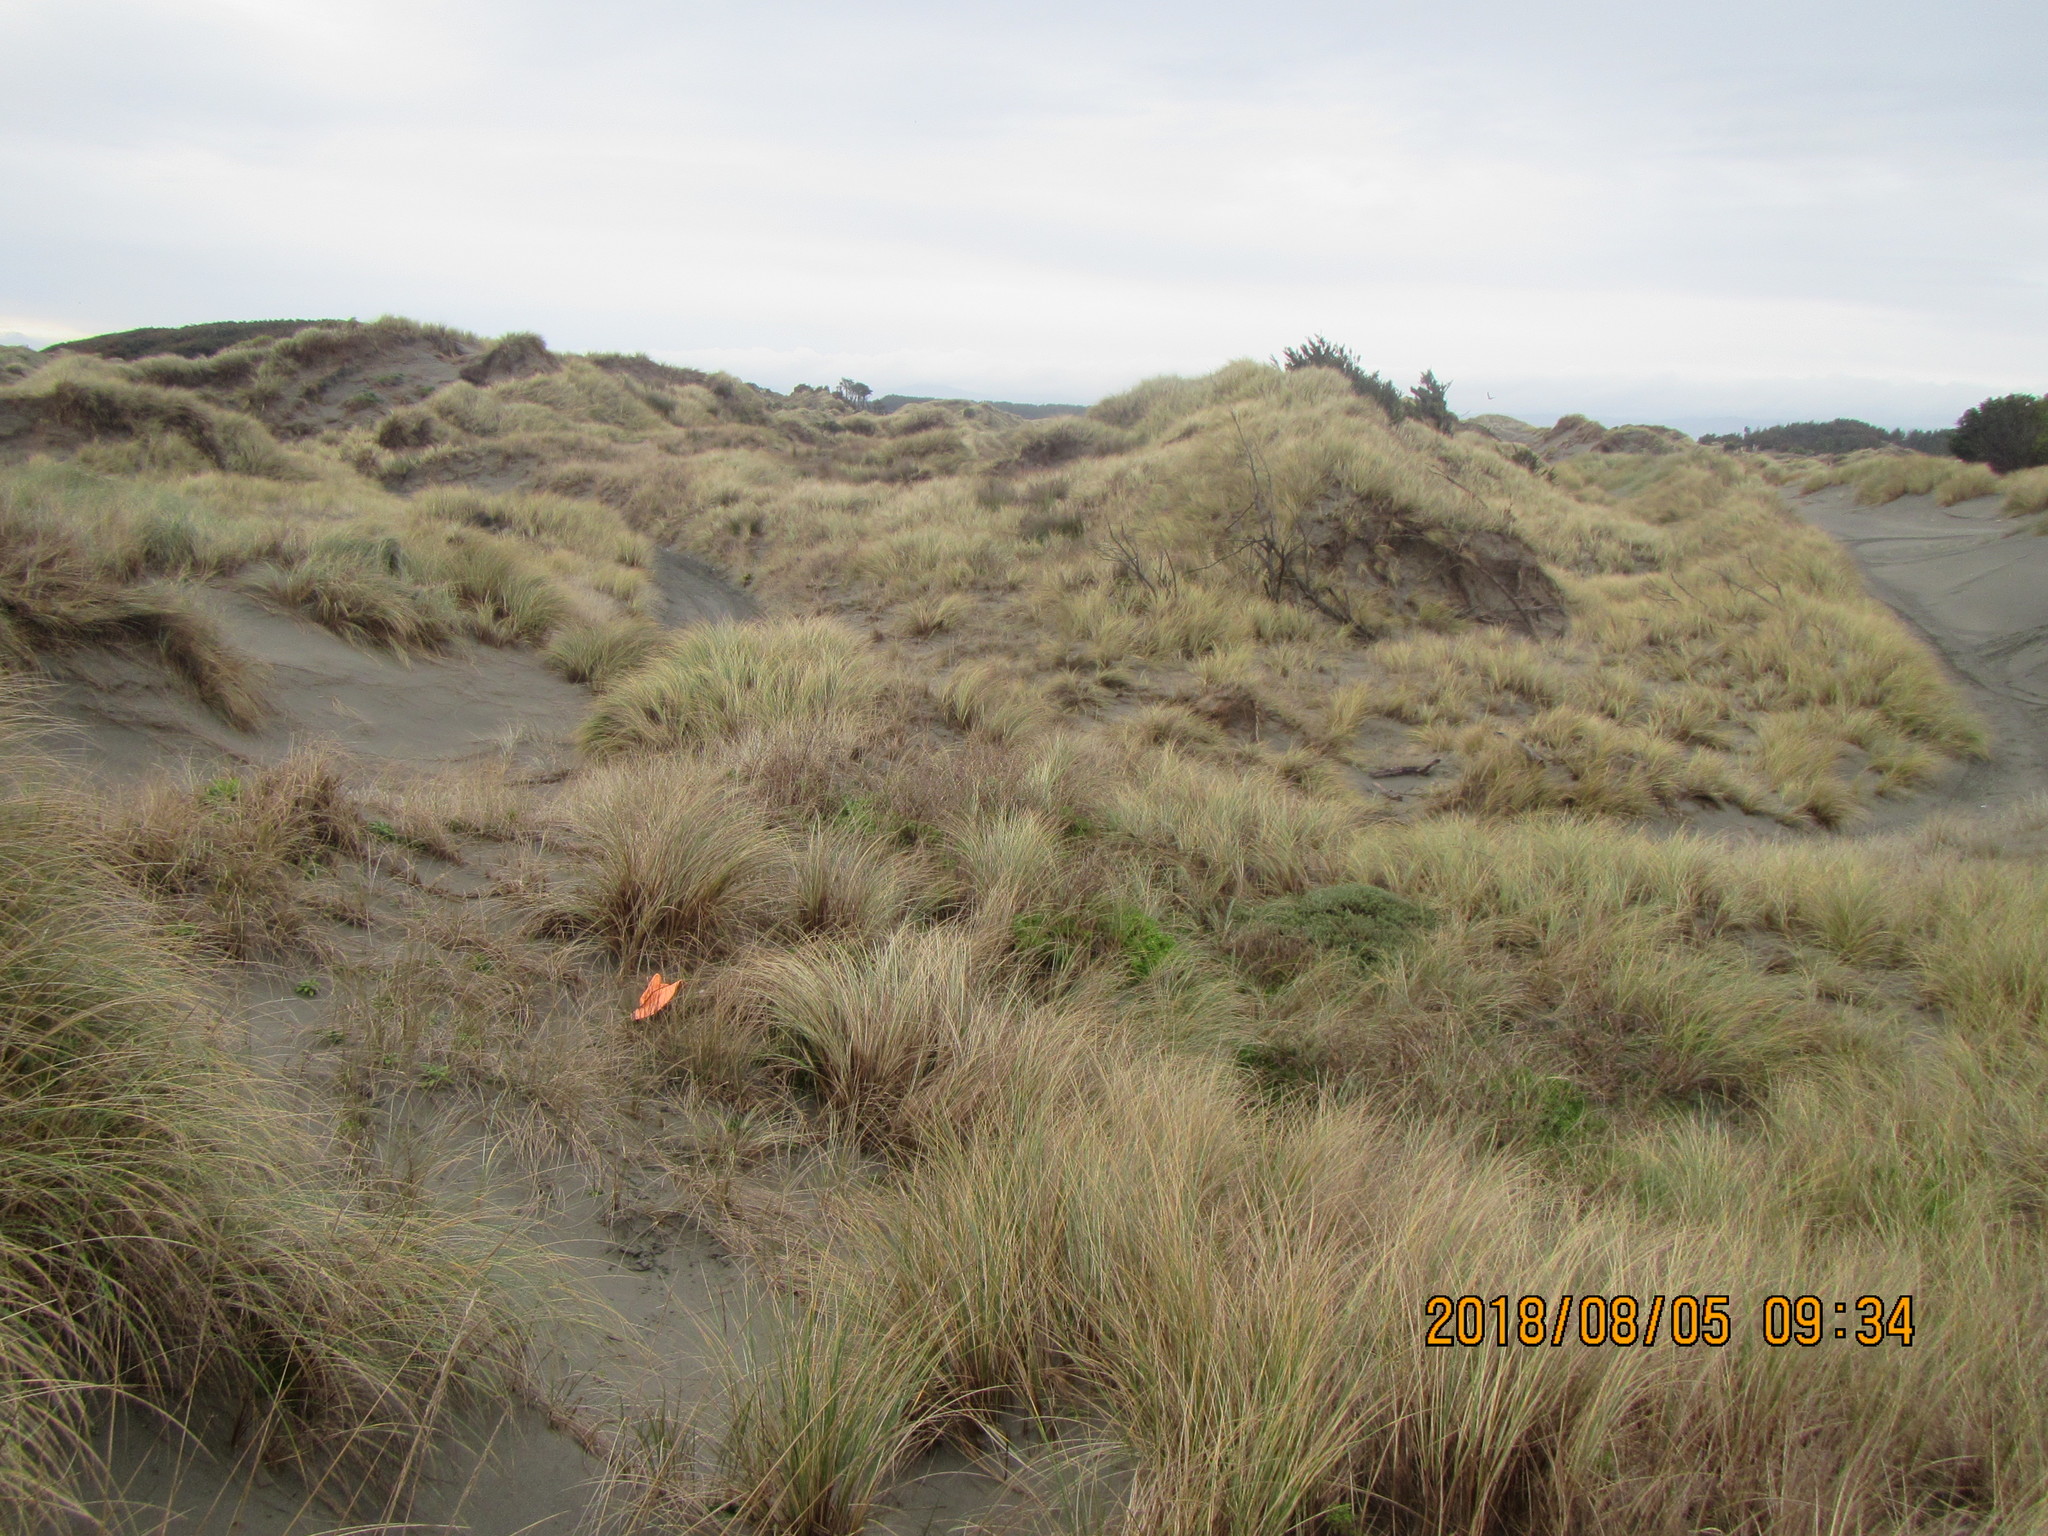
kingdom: Animalia
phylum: Mollusca
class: Gastropoda
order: Stylommatophora
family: Geomitridae
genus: Xeroplexa
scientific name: Xeroplexa intersecta
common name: Wrinkled snail
